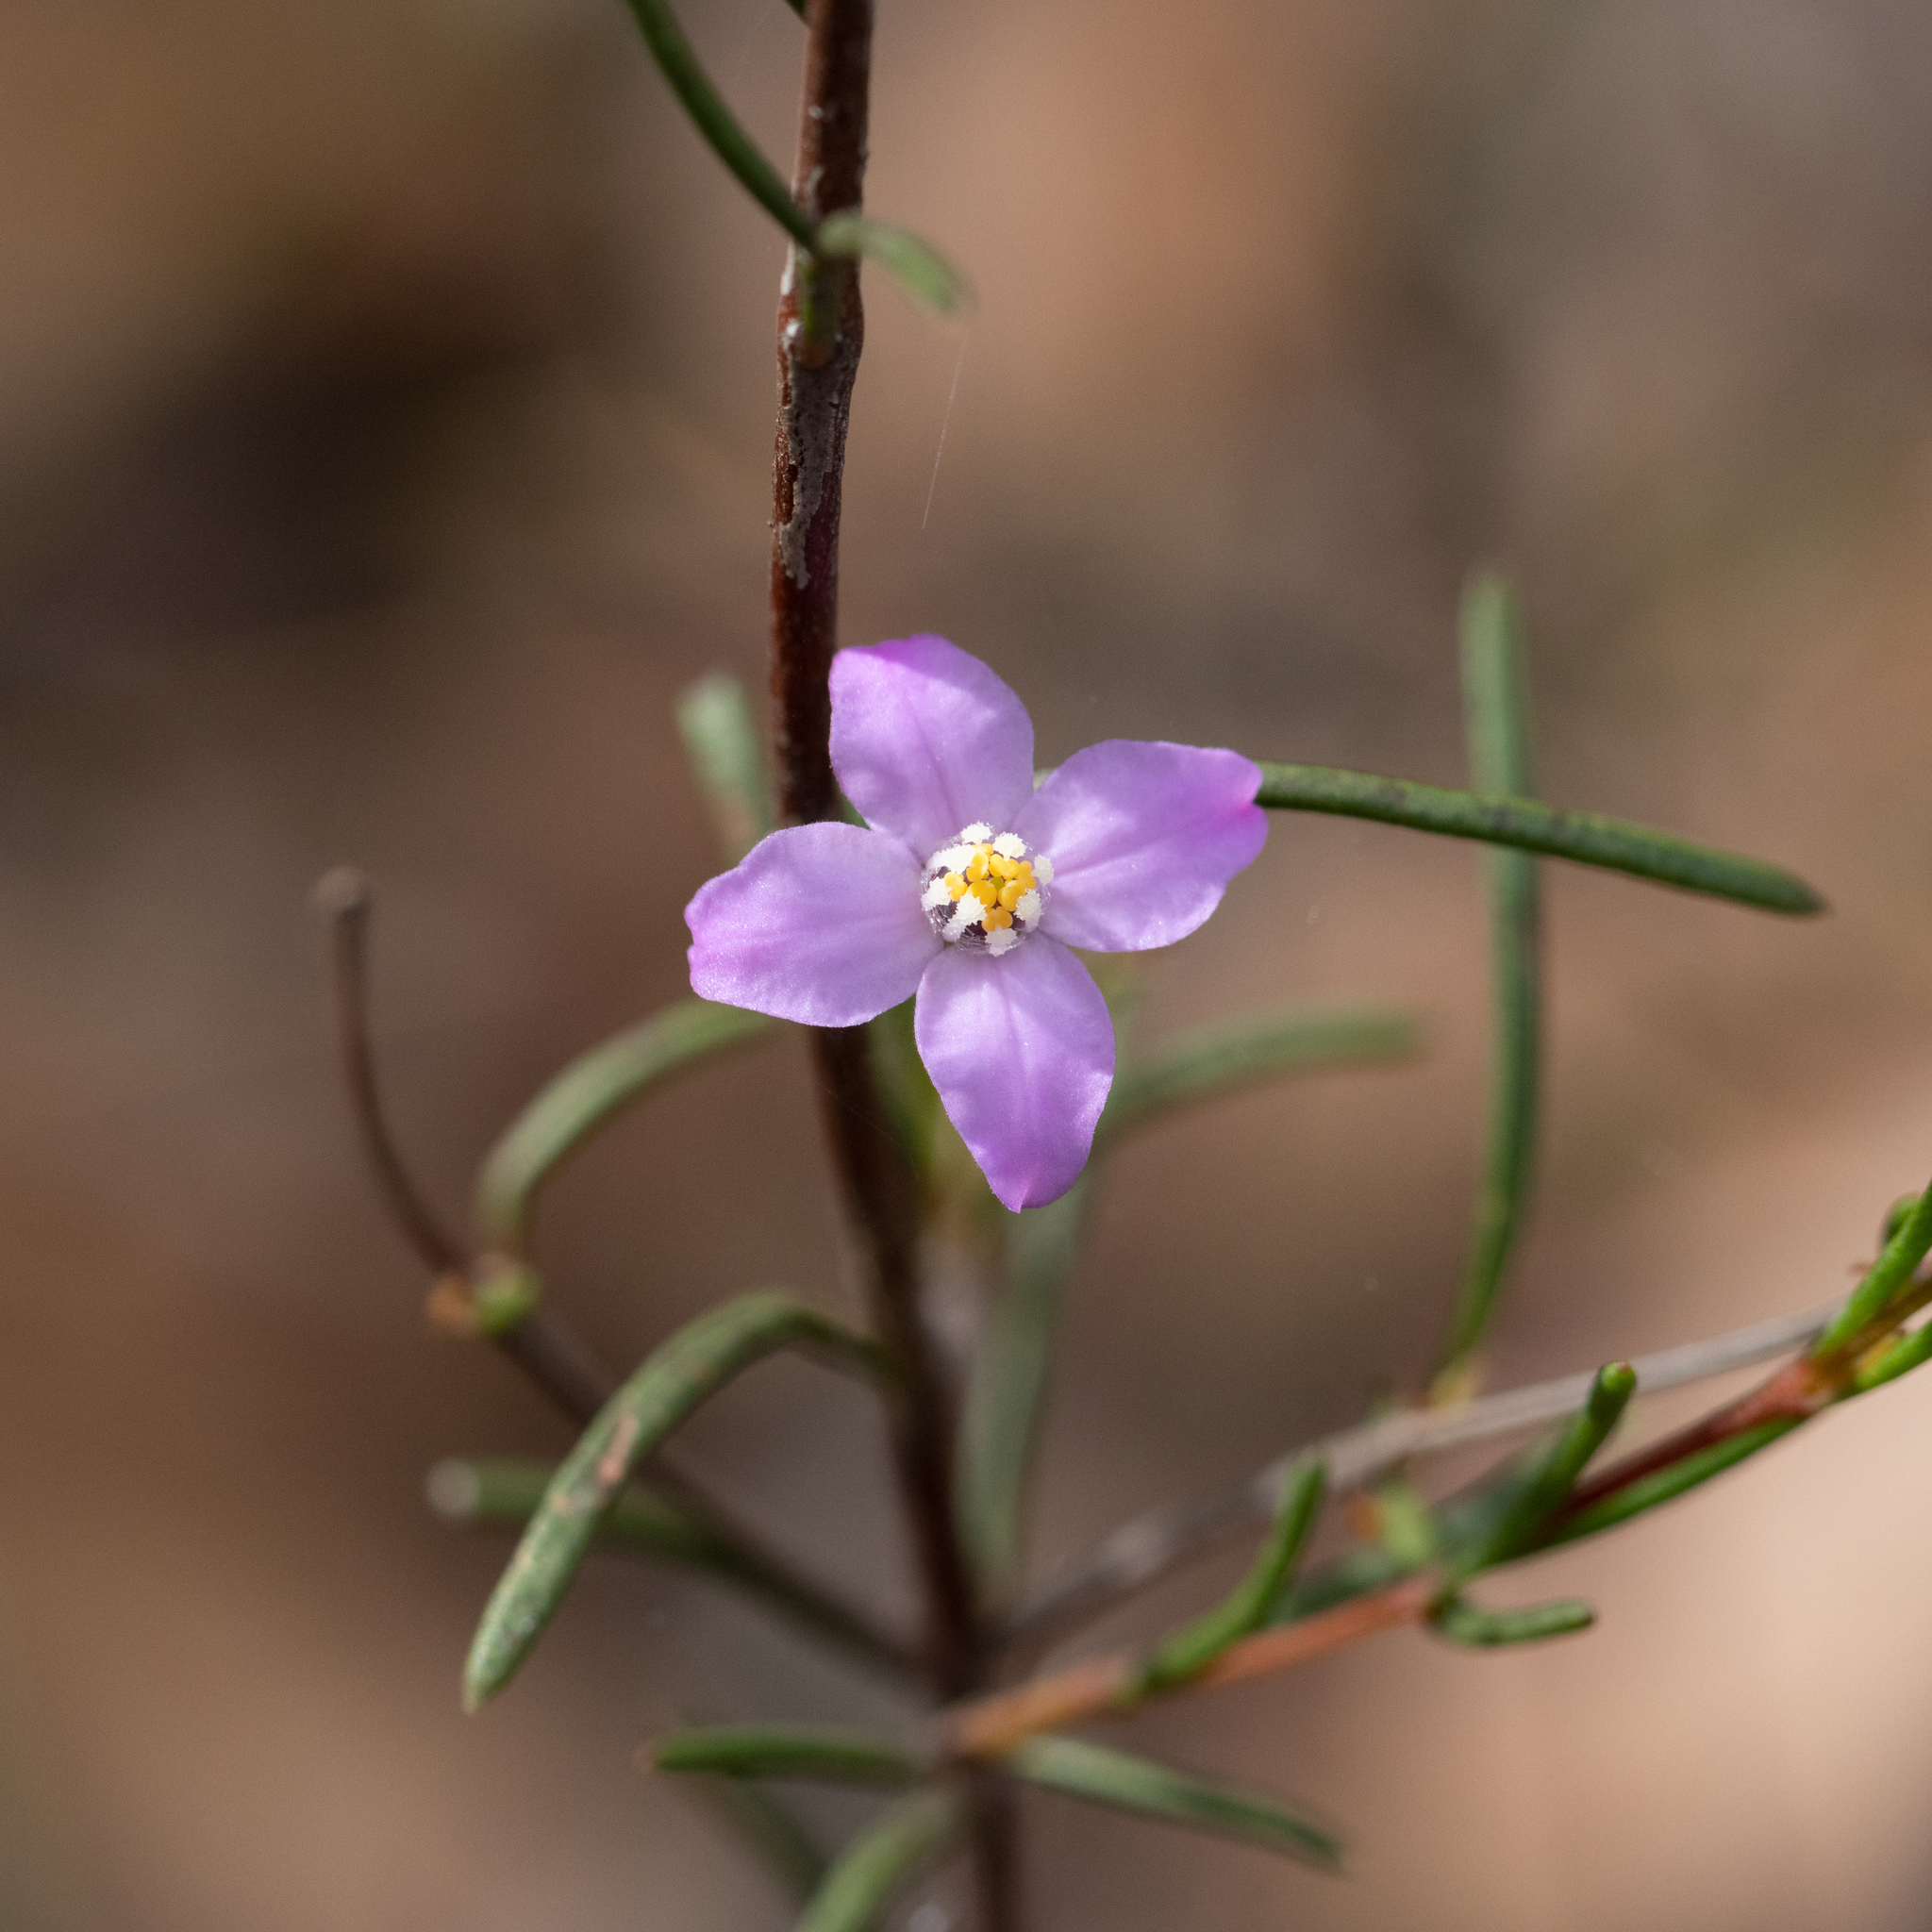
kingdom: Plantae
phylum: Tracheophyta
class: Magnoliopsida
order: Sapindales
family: Rutaceae
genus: Boronia
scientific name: Boronia filifolia
